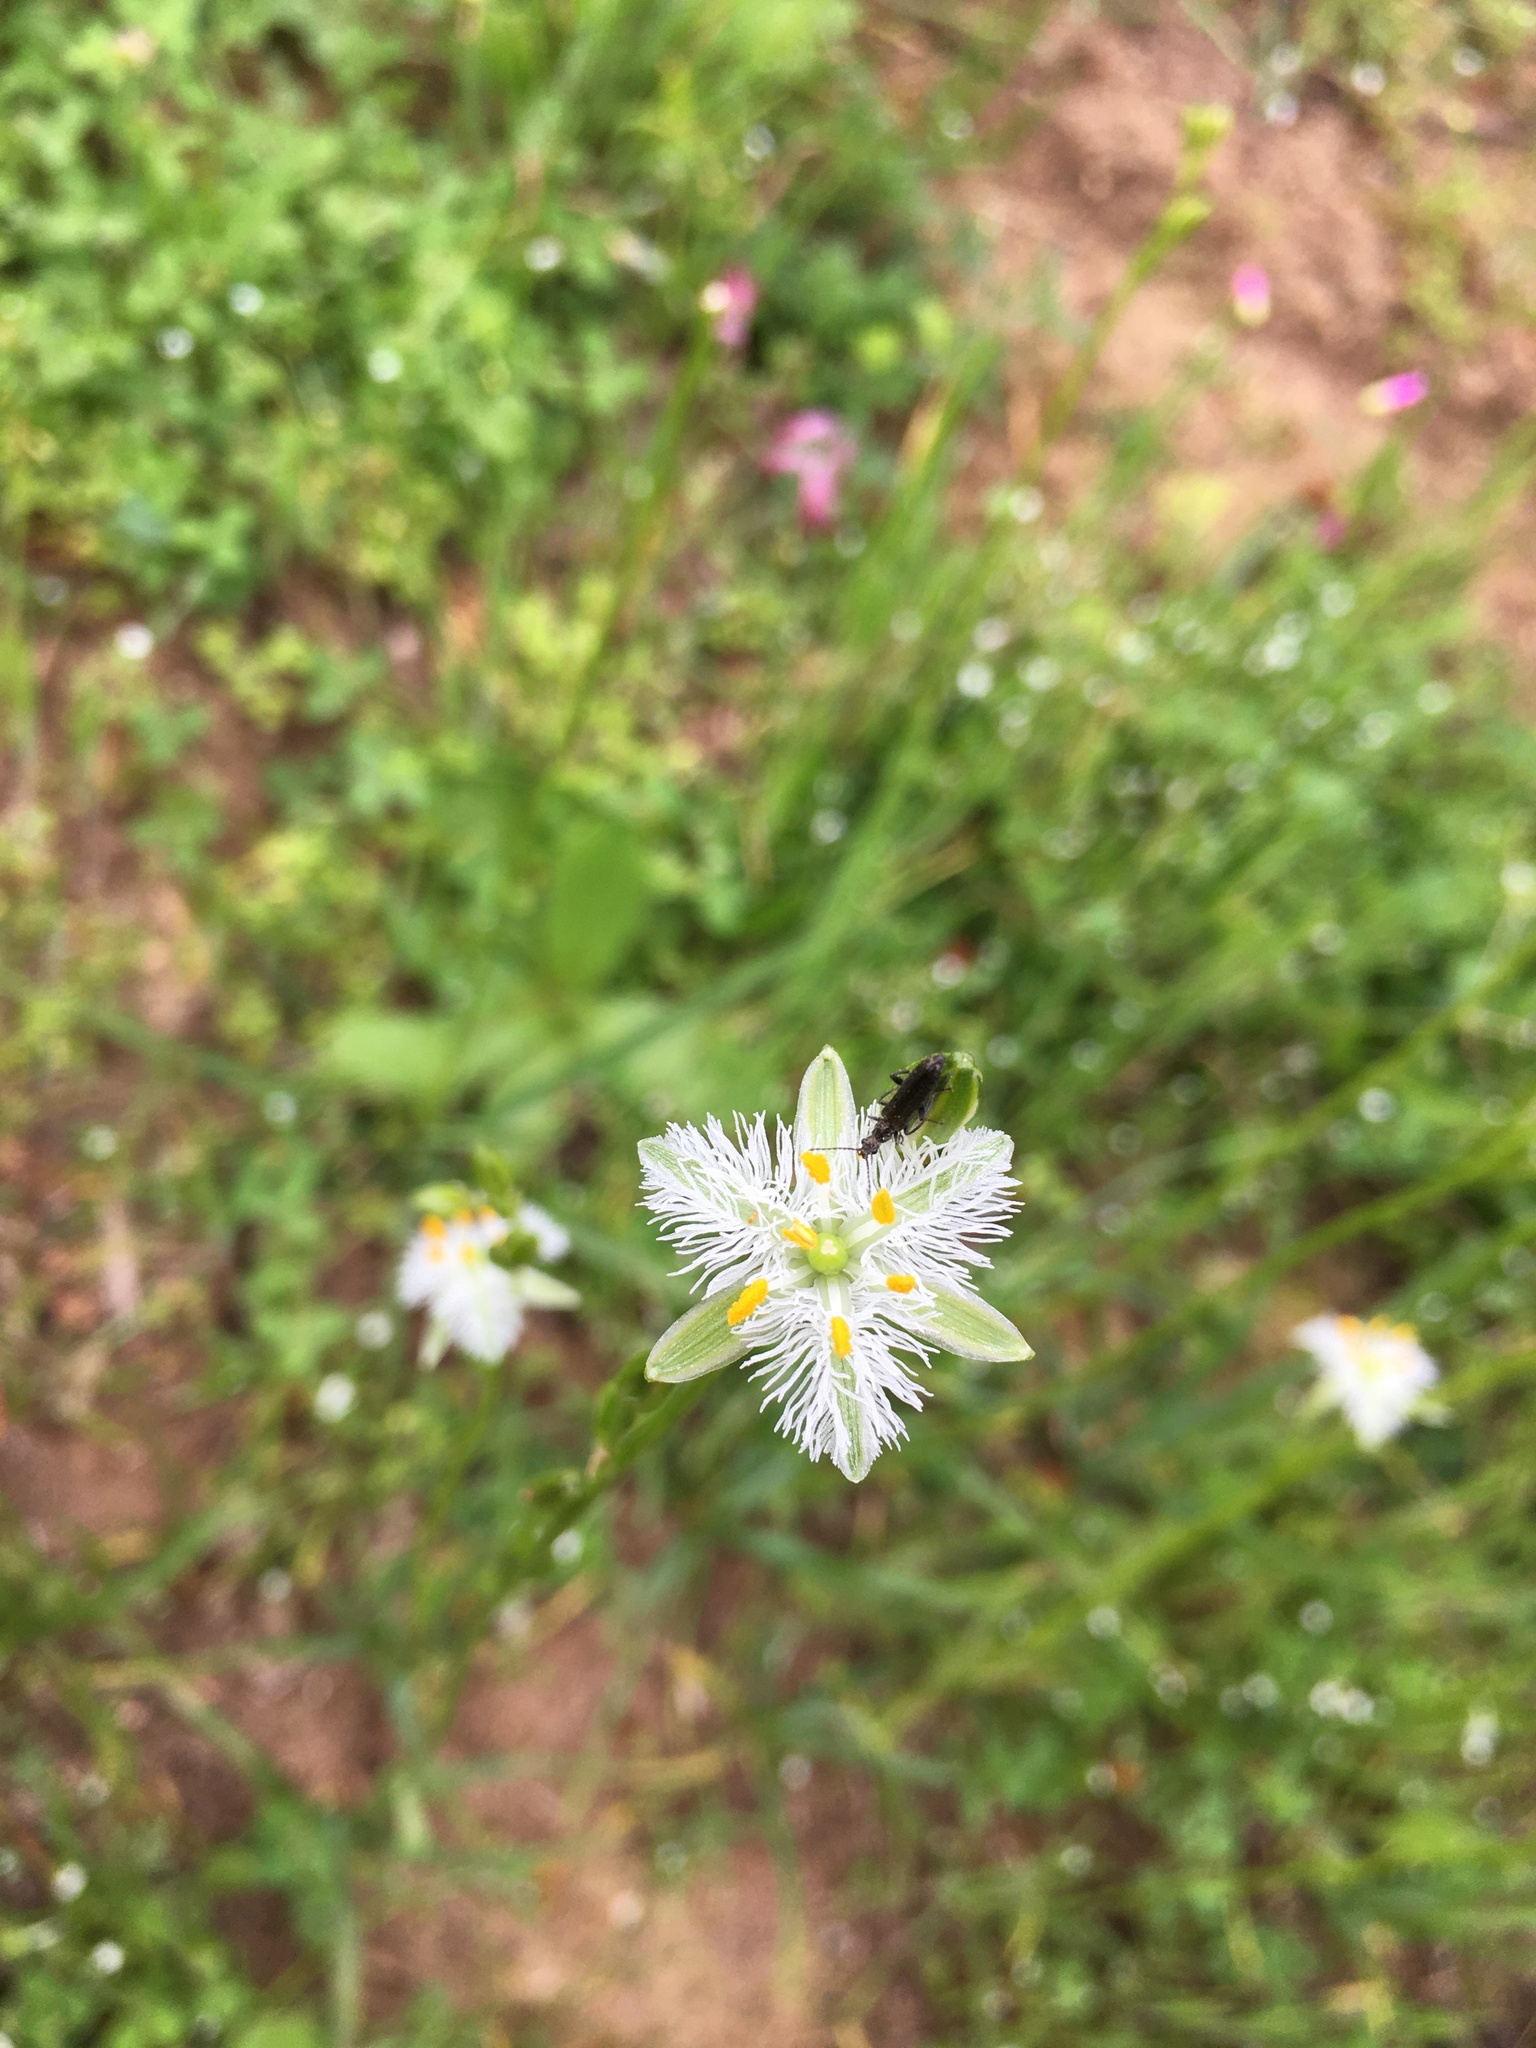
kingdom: Plantae
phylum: Tracheophyta
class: Liliopsida
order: Asparagales
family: Asparagaceae
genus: Trichopetalum
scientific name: Trichopetalum plumosum
